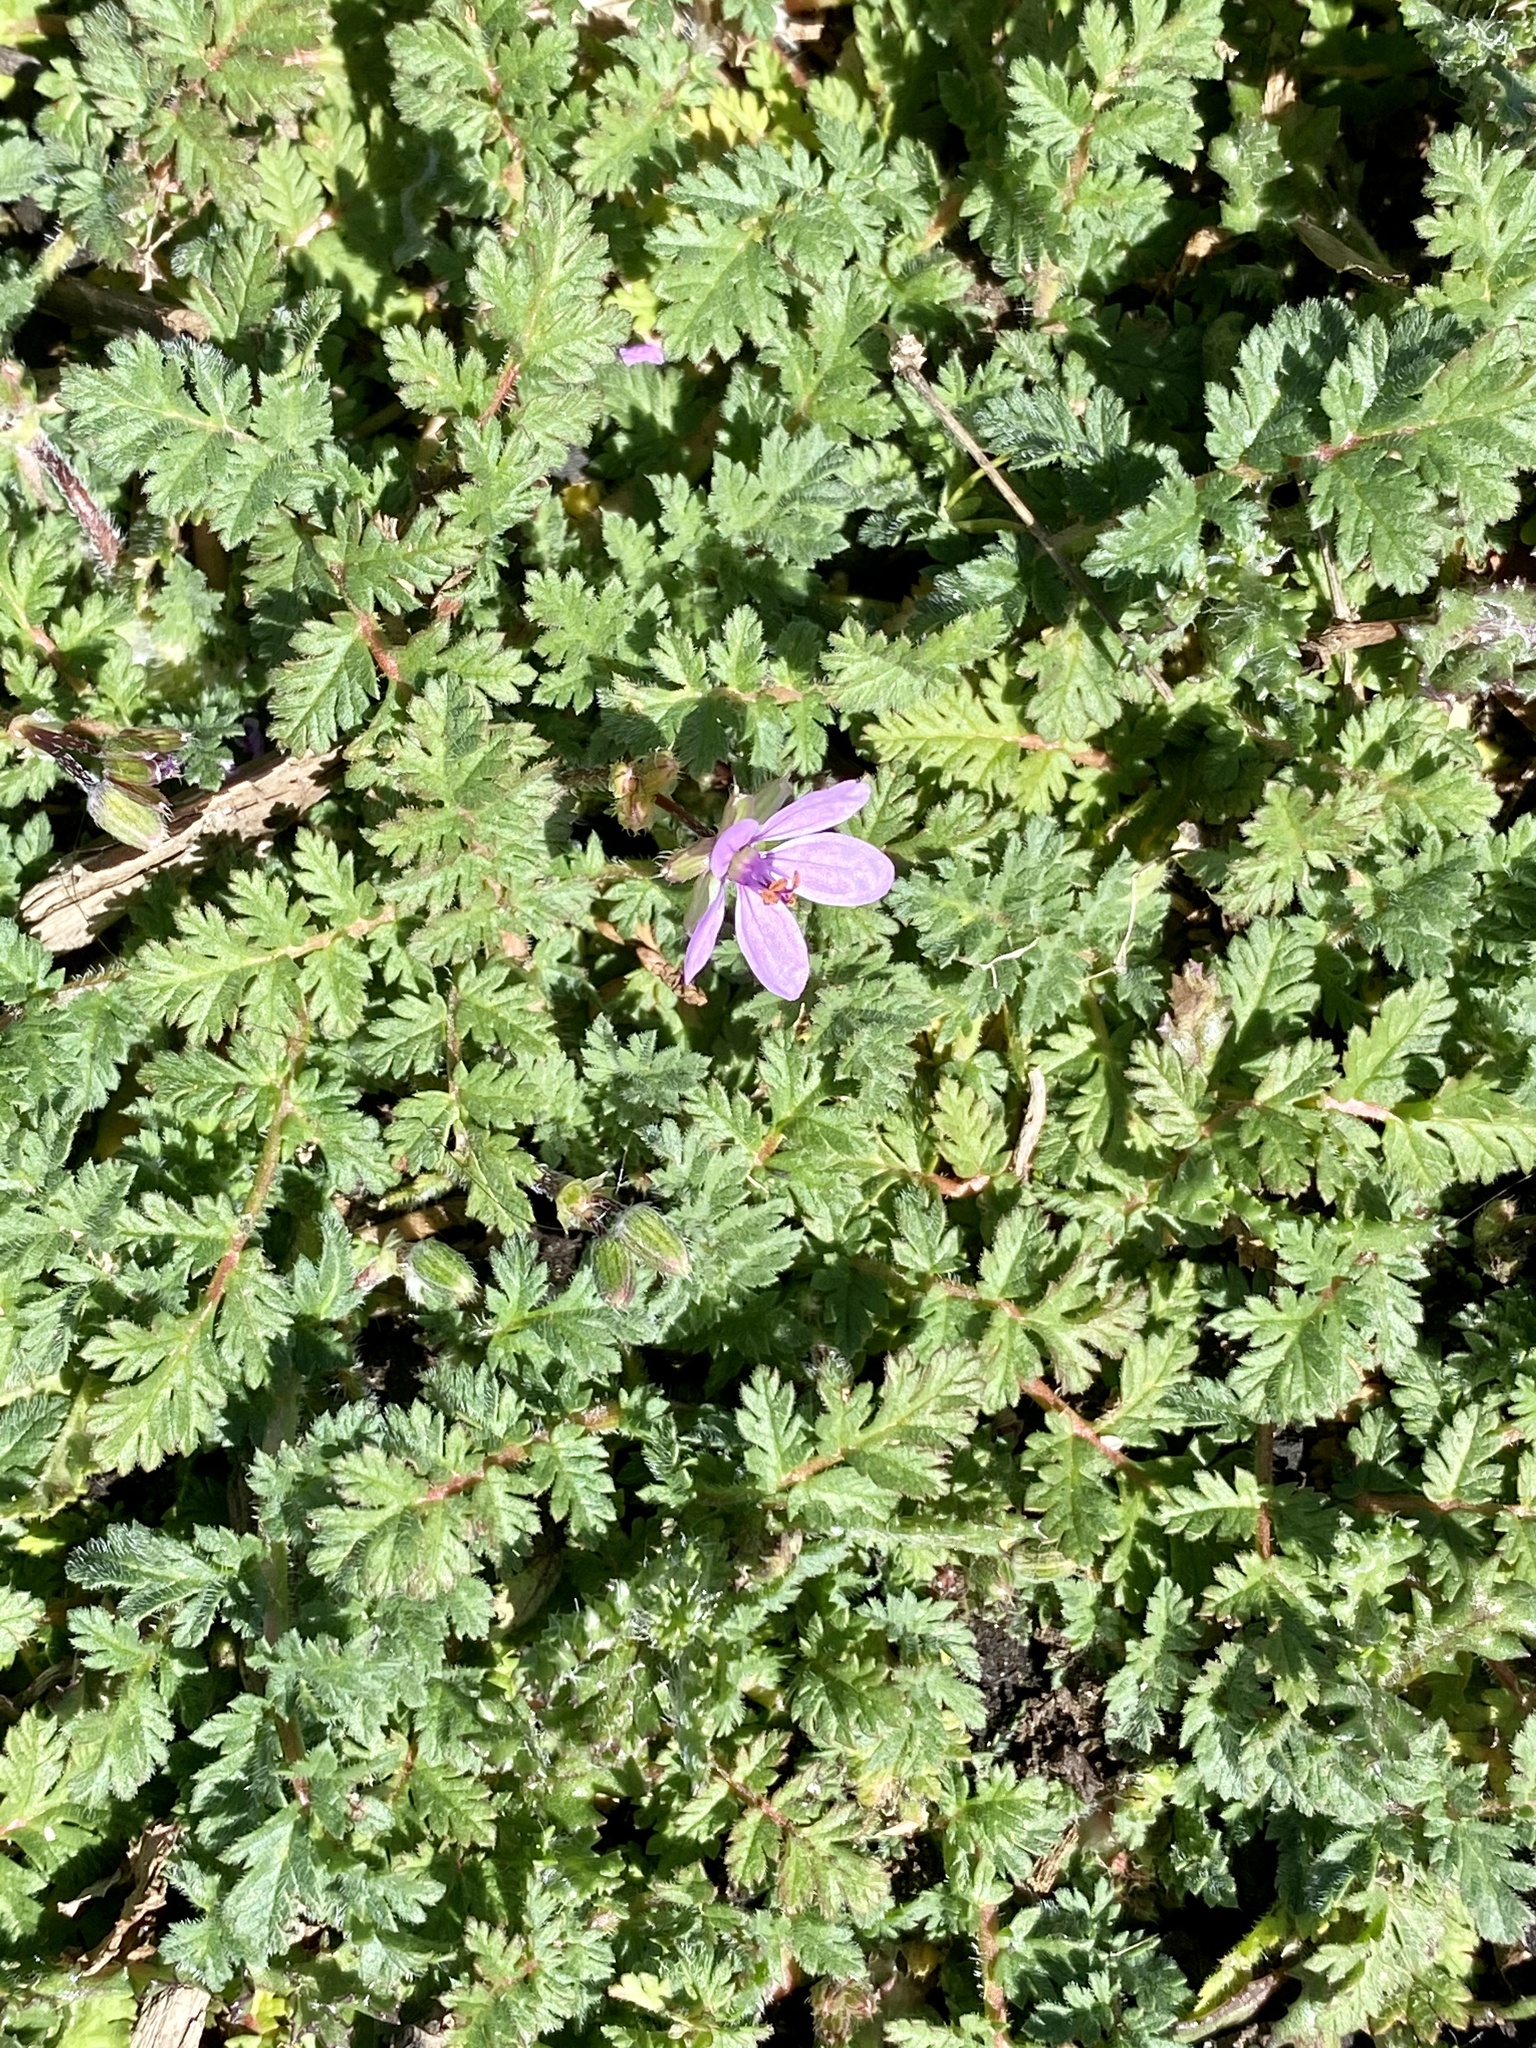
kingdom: Plantae
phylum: Tracheophyta
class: Magnoliopsida
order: Geraniales
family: Geraniaceae
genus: Erodium
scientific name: Erodium cicutarium
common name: Common stork's-bill
